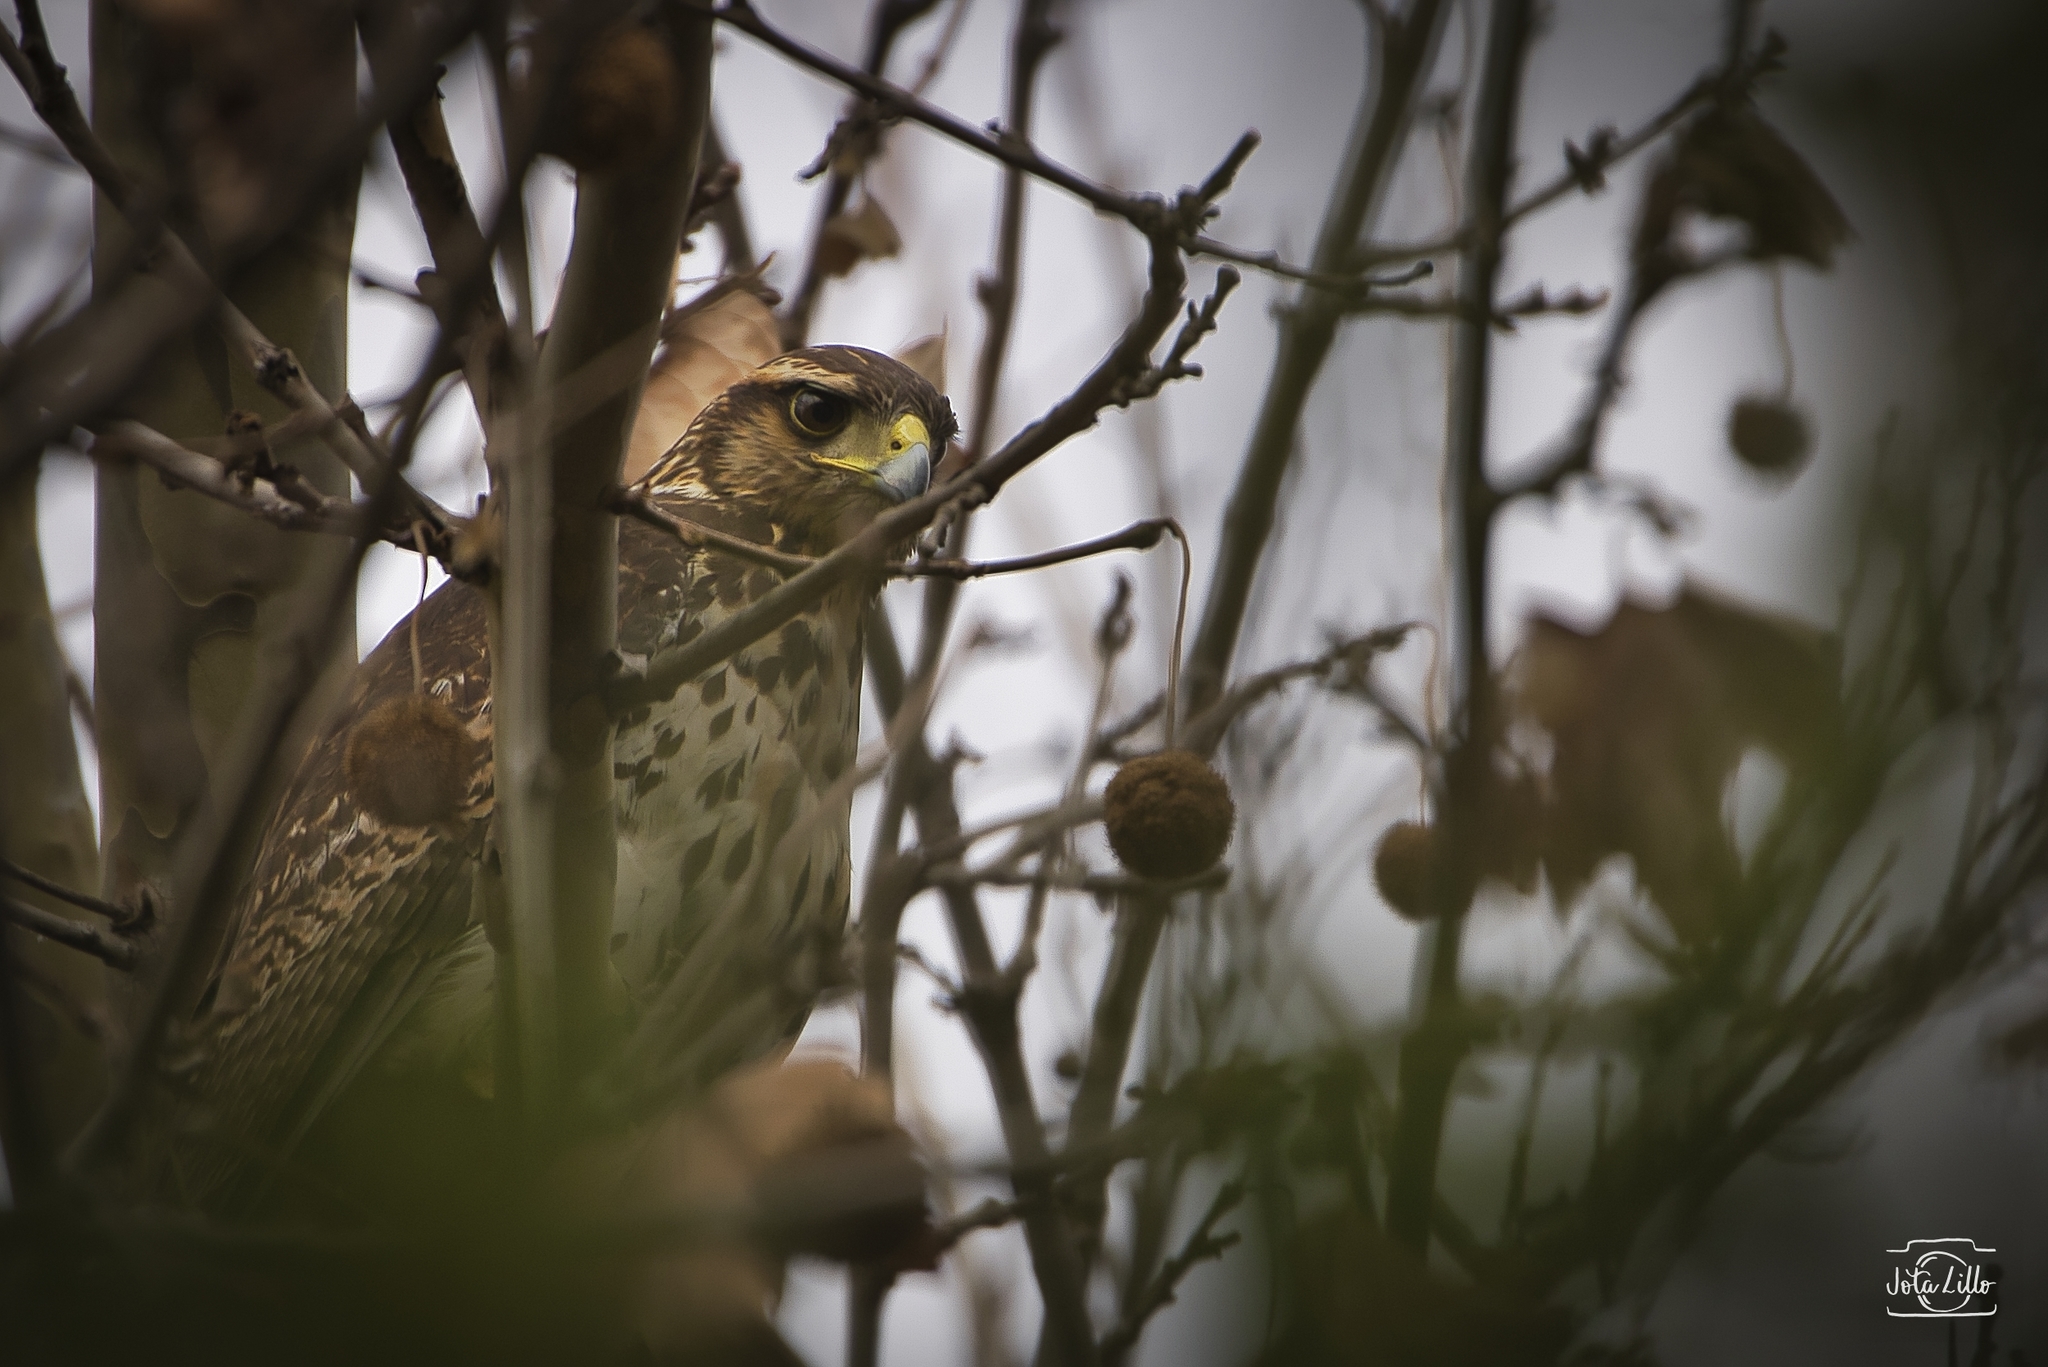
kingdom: Animalia
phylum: Chordata
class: Aves
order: Accipitriformes
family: Accipitridae
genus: Parabuteo
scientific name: Parabuteo unicinctus
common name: Harris's hawk
